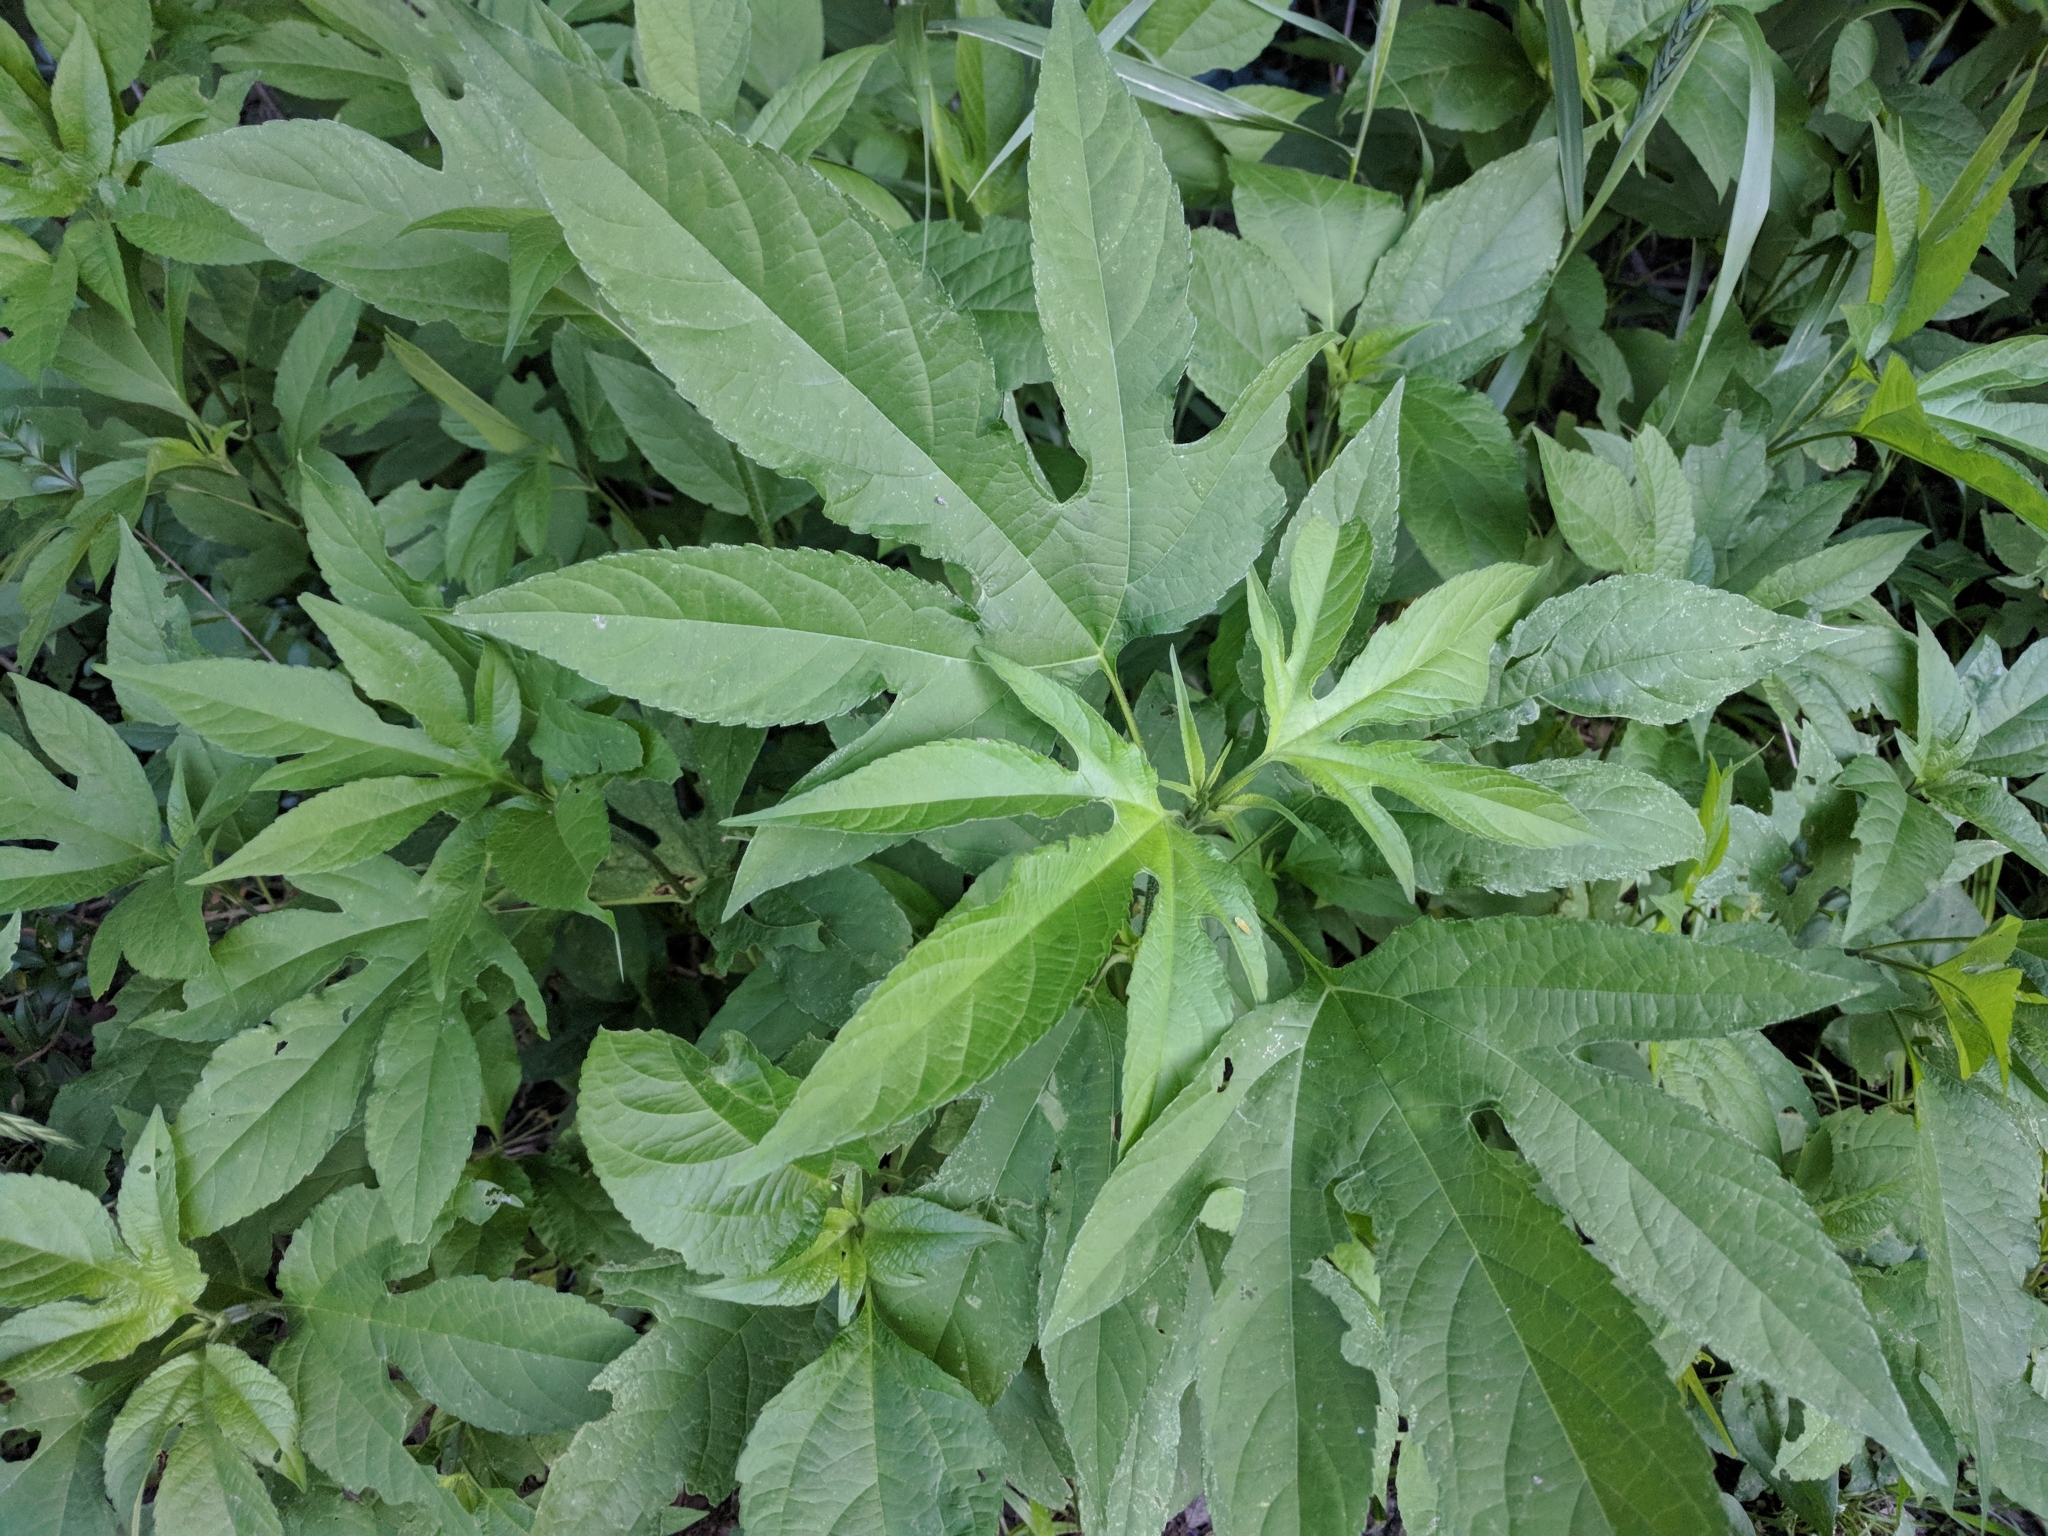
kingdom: Plantae
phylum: Tracheophyta
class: Magnoliopsida
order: Asterales
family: Asteraceae
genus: Ambrosia
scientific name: Ambrosia trifida
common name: Giant ragweed
